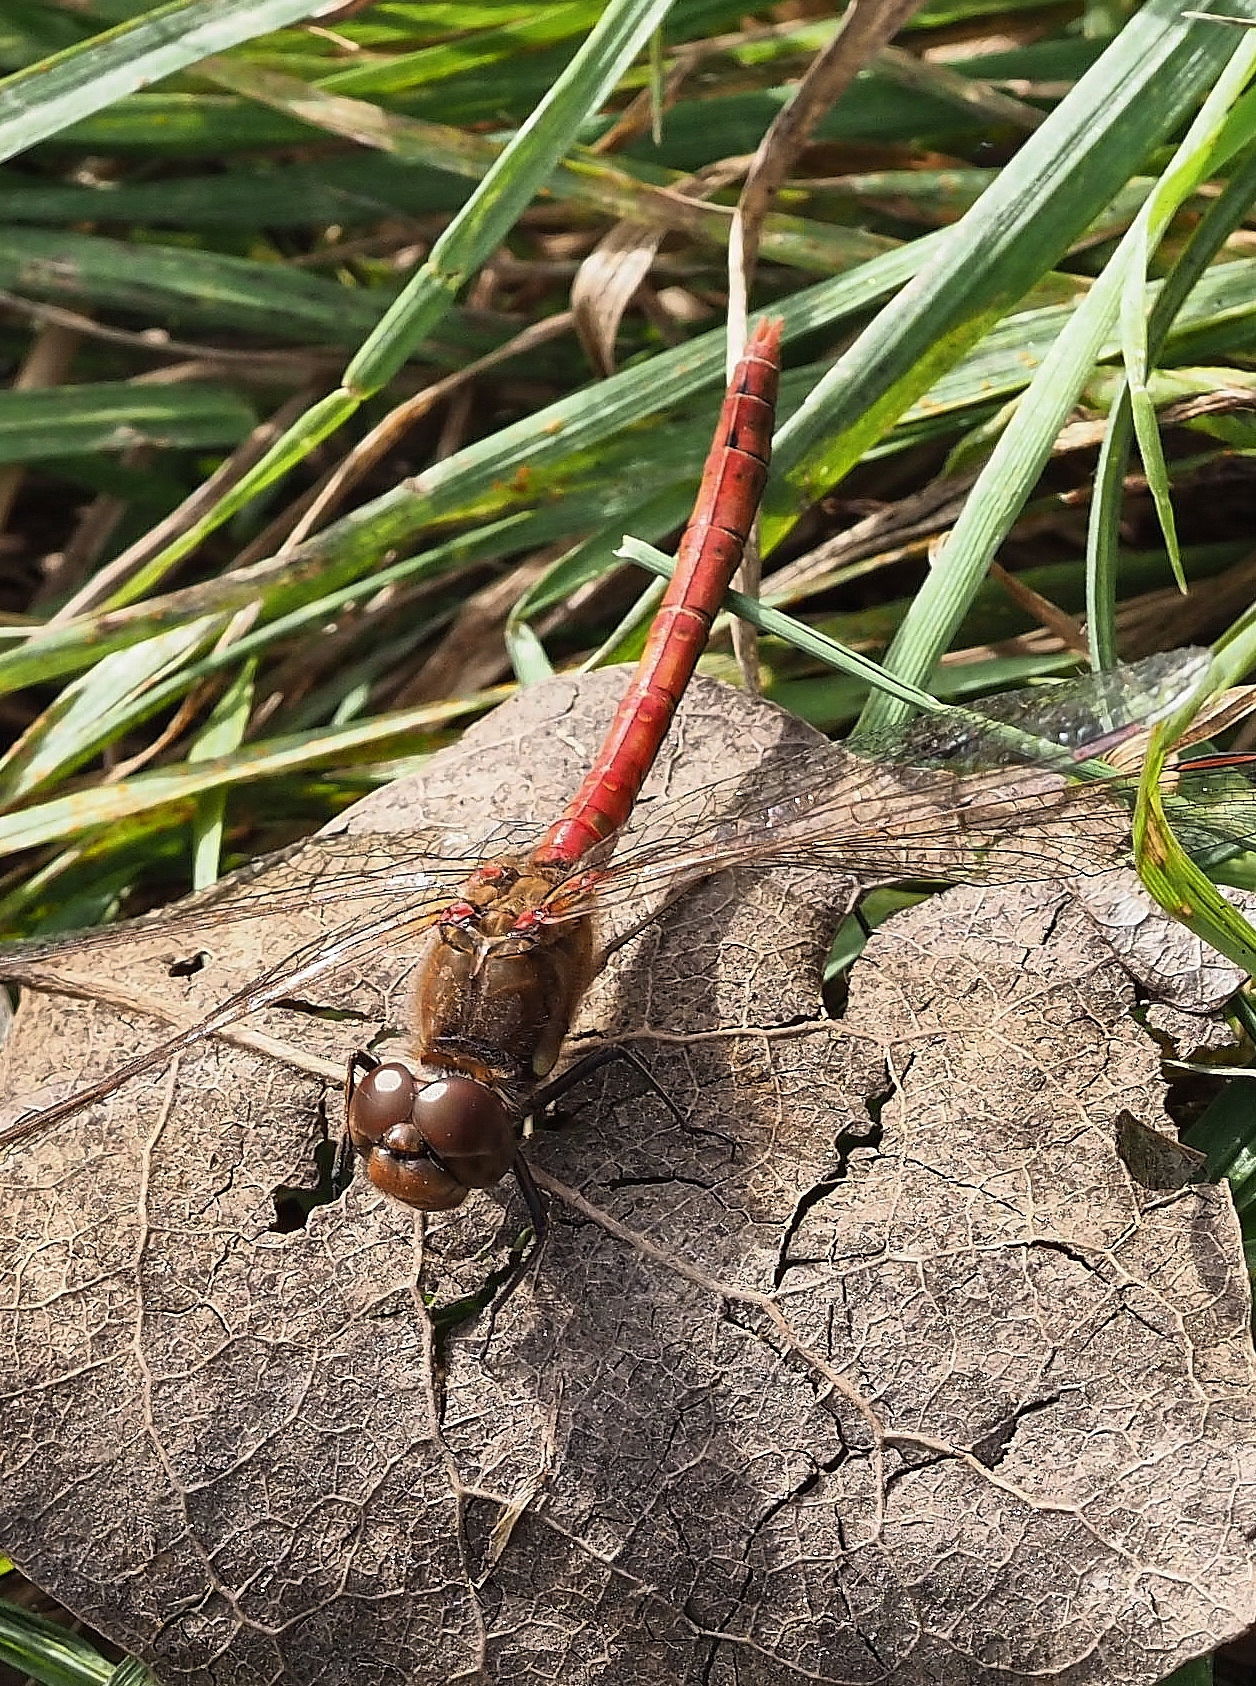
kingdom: Animalia
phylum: Arthropoda
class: Insecta
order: Odonata
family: Libellulidae
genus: Sympetrum
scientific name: Sympetrum striolatum
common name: Common darter
